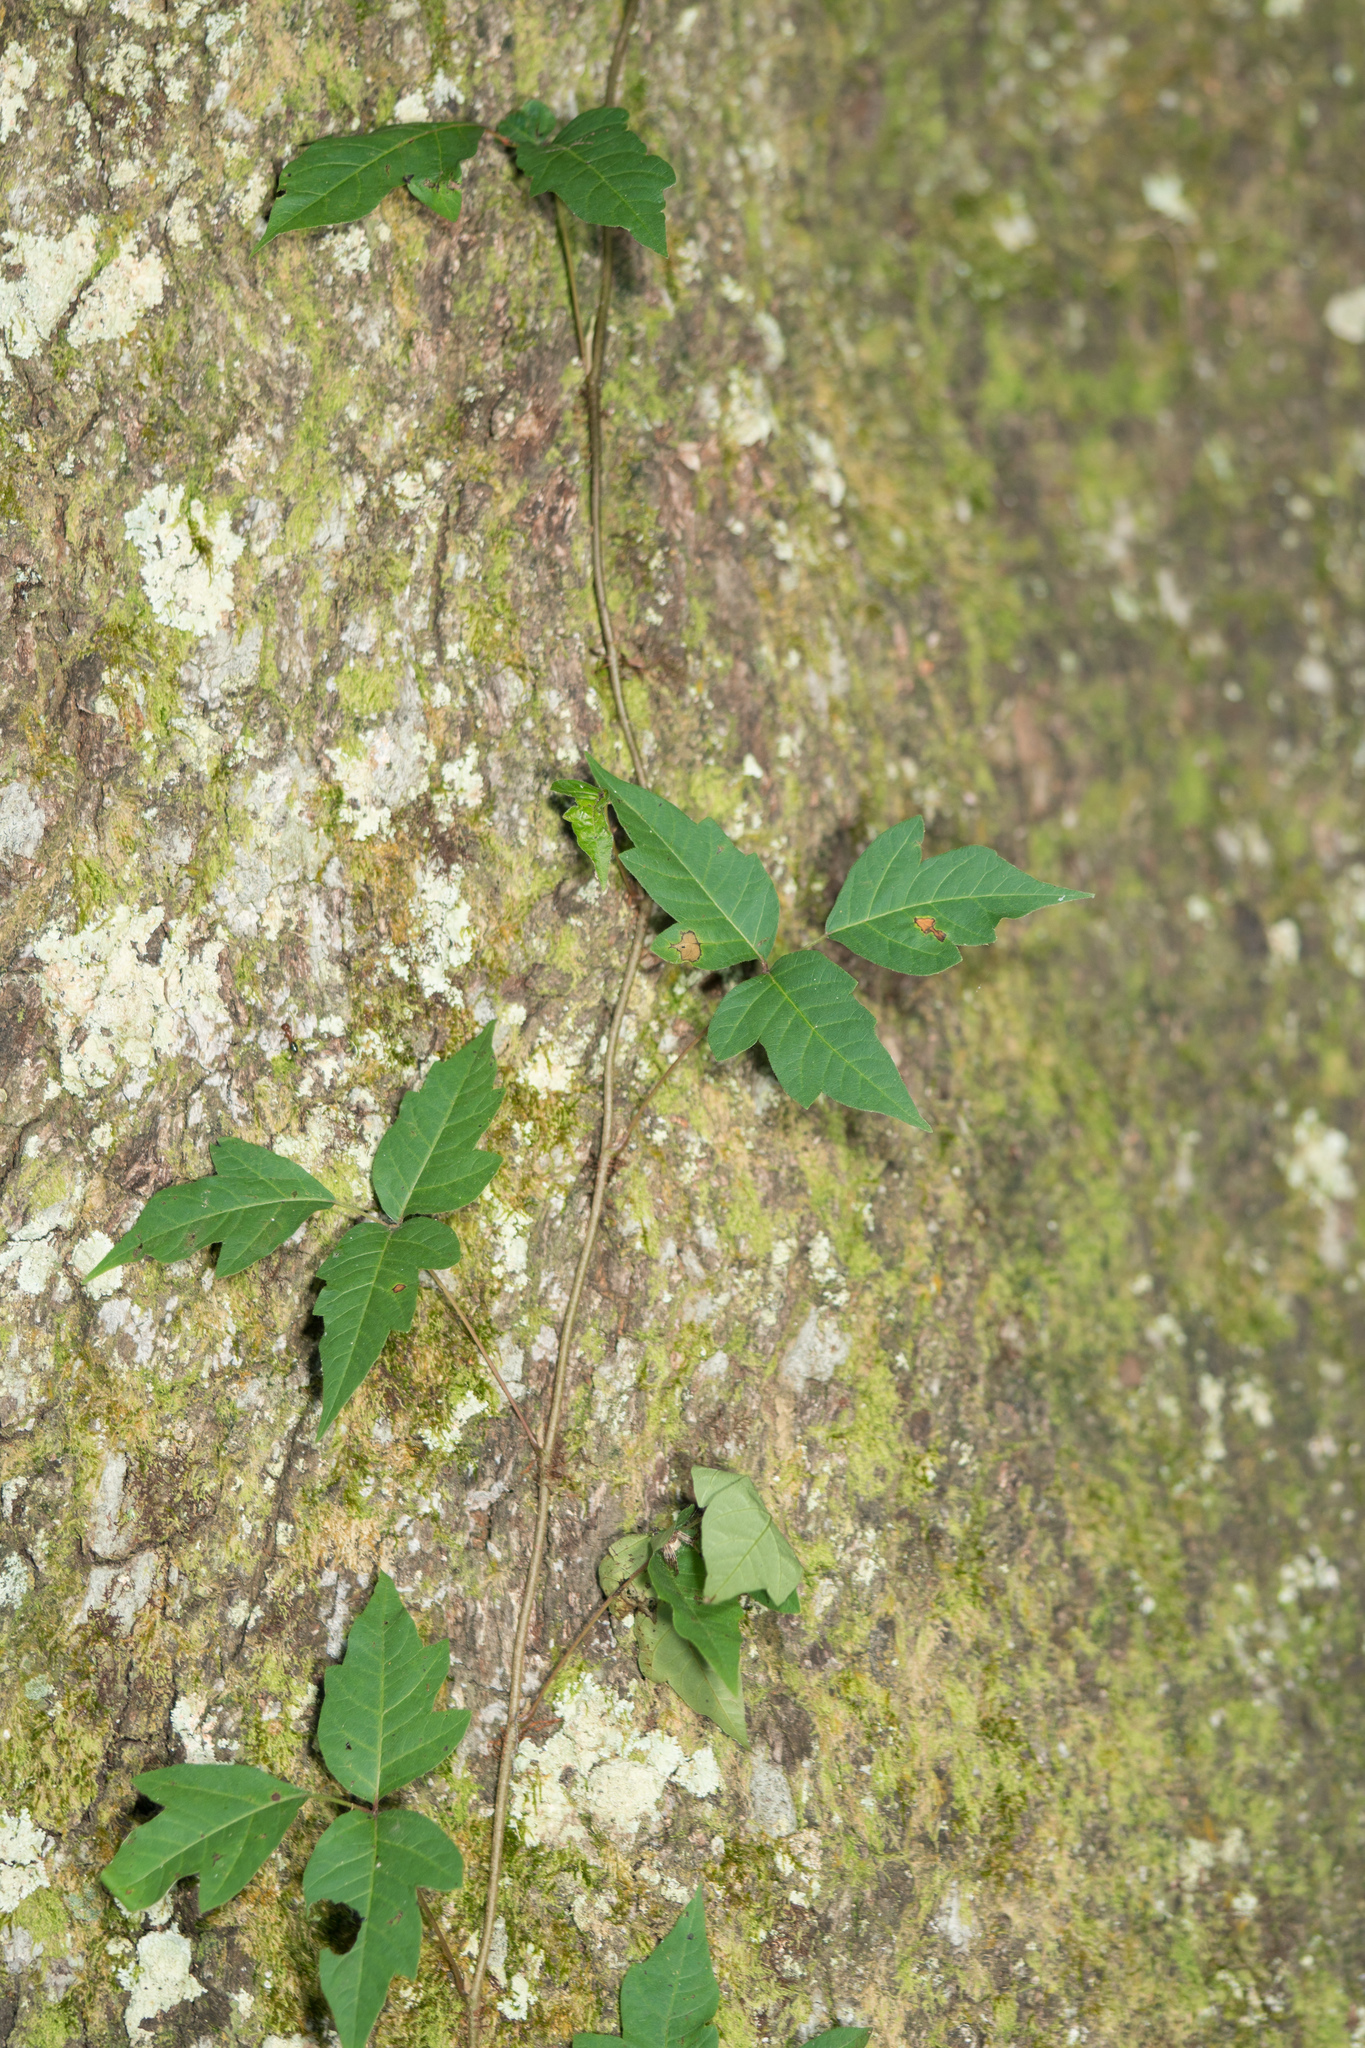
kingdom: Plantae
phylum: Tracheophyta
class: Magnoliopsida
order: Sapindales
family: Anacardiaceae
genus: Toxicodendron
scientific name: Toxicodendron radicans
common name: Poison ivy
